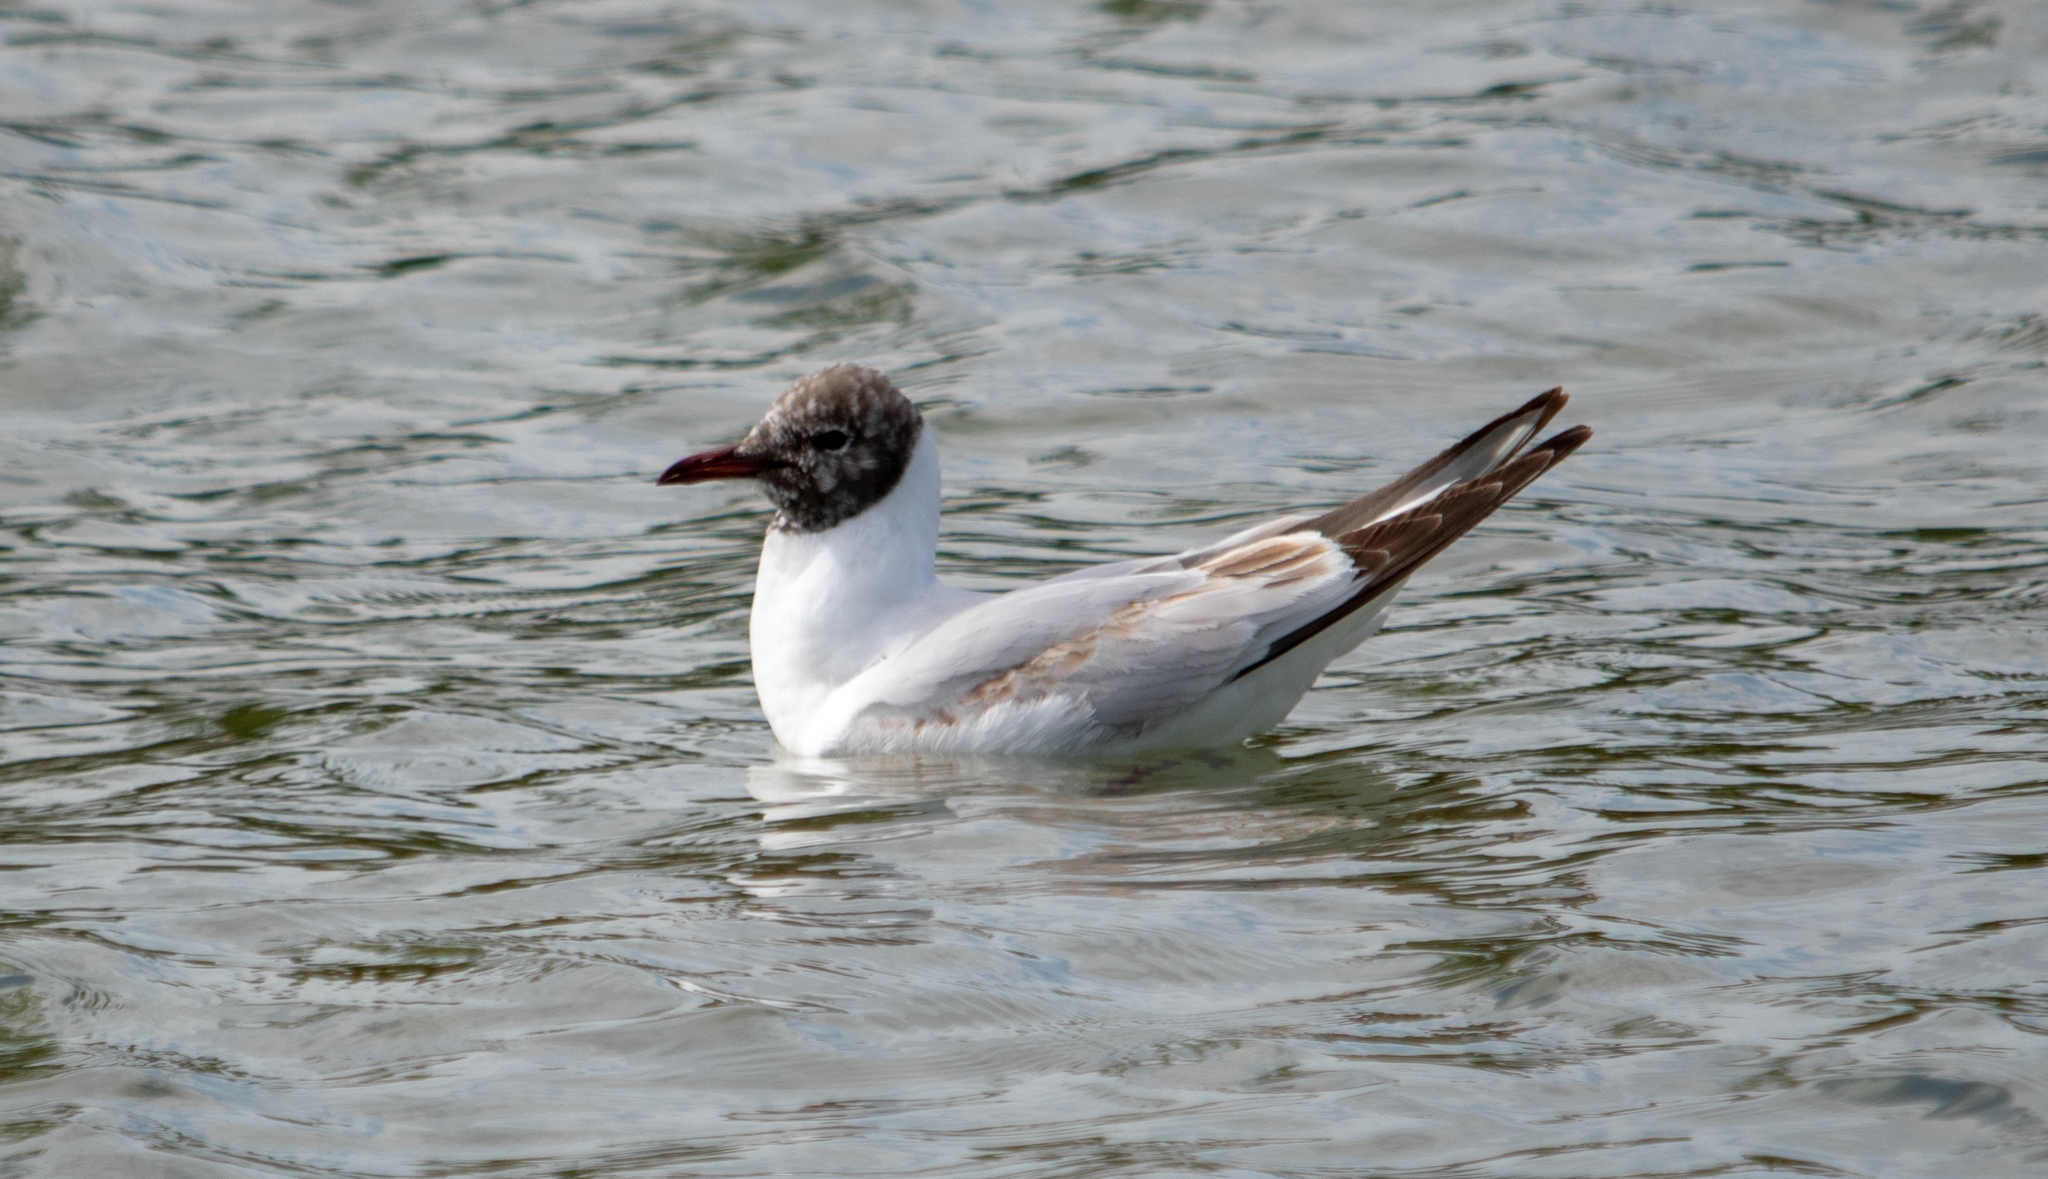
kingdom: Animalia
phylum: Chordata
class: Aves
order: Charadriiformes
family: Laridae
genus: Chroicocephalus
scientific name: Chroicocephalus ridibundus
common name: Black-headed gull
